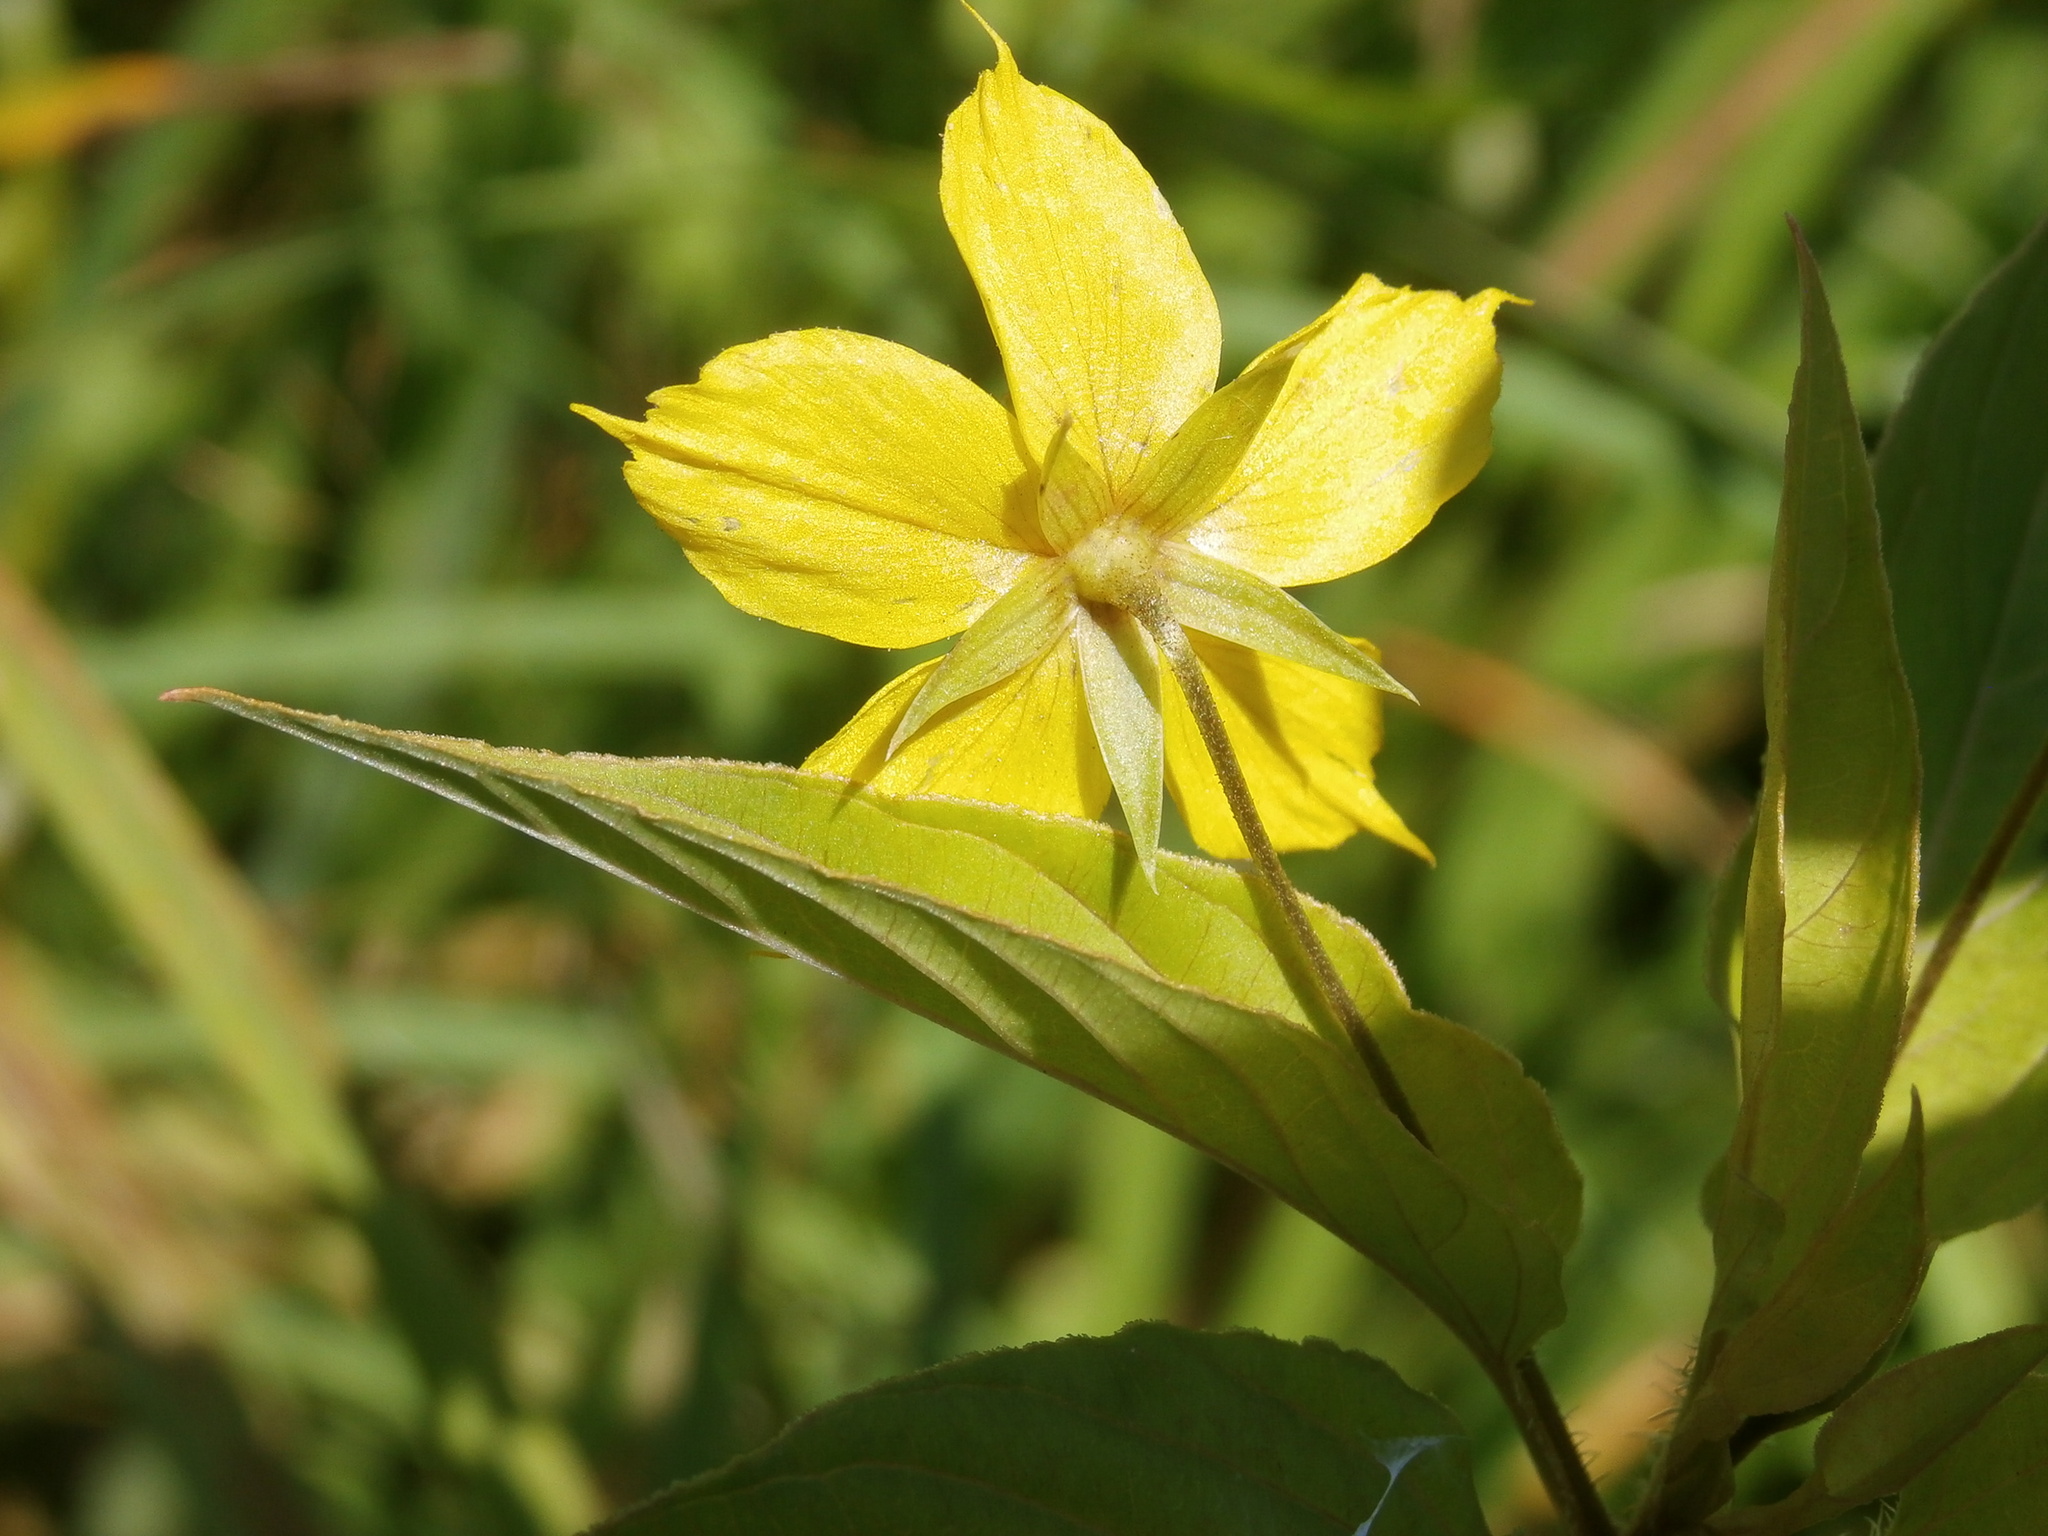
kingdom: Plantae
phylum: Tracheophyta
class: Magnoliopsida
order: Ericales
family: Primulaceae
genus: Lysimachia
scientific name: Lysimachia ciliata
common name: Fringed loosestrife
